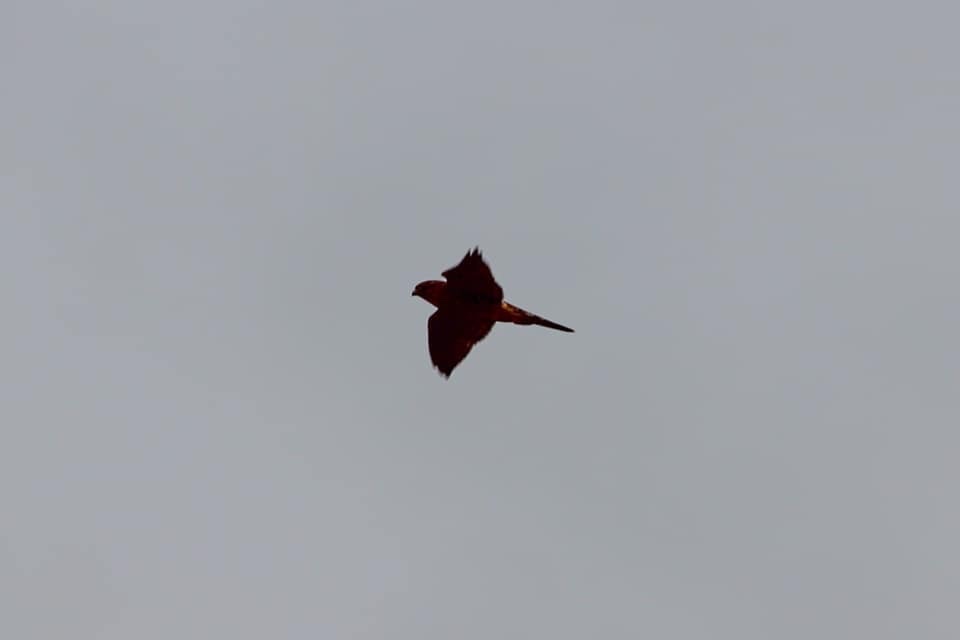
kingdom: Animalia
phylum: Chordata
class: Aves
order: Falconiformes
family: Falconidae
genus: Falco
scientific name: Falco columbarius
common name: Merlin
